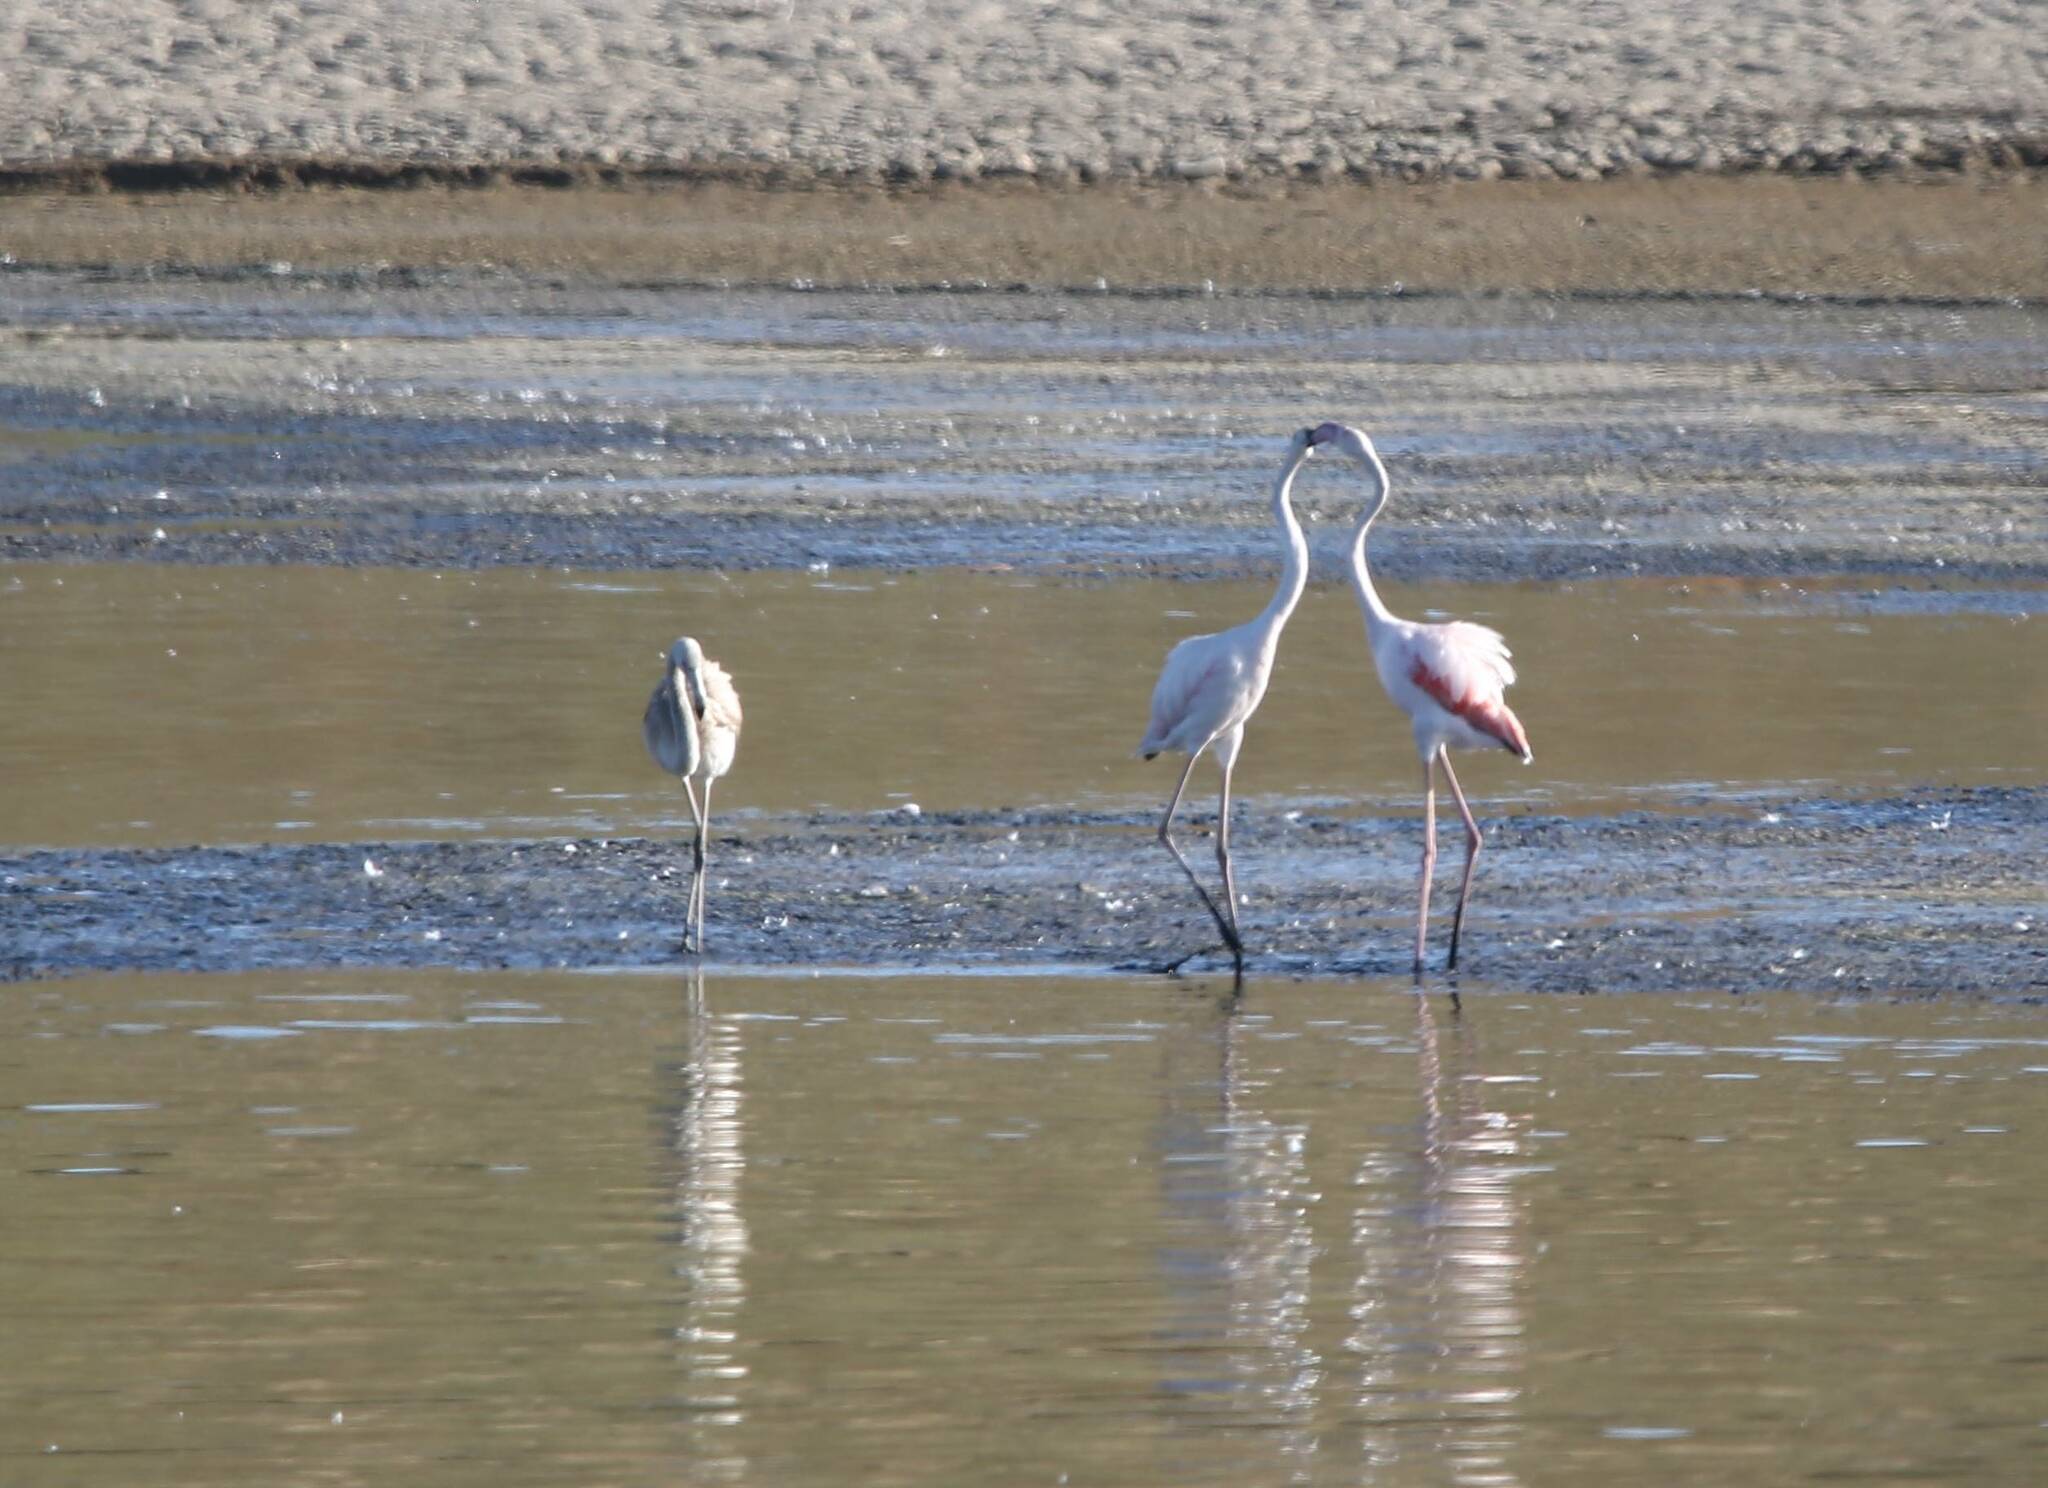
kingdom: Animalia
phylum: Chordata
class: Aves
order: Phoenicopteriformes
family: Phoenicopteridae
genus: Phoenicopterus
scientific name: Phoenicopterus roseus
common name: Greater flamingo
